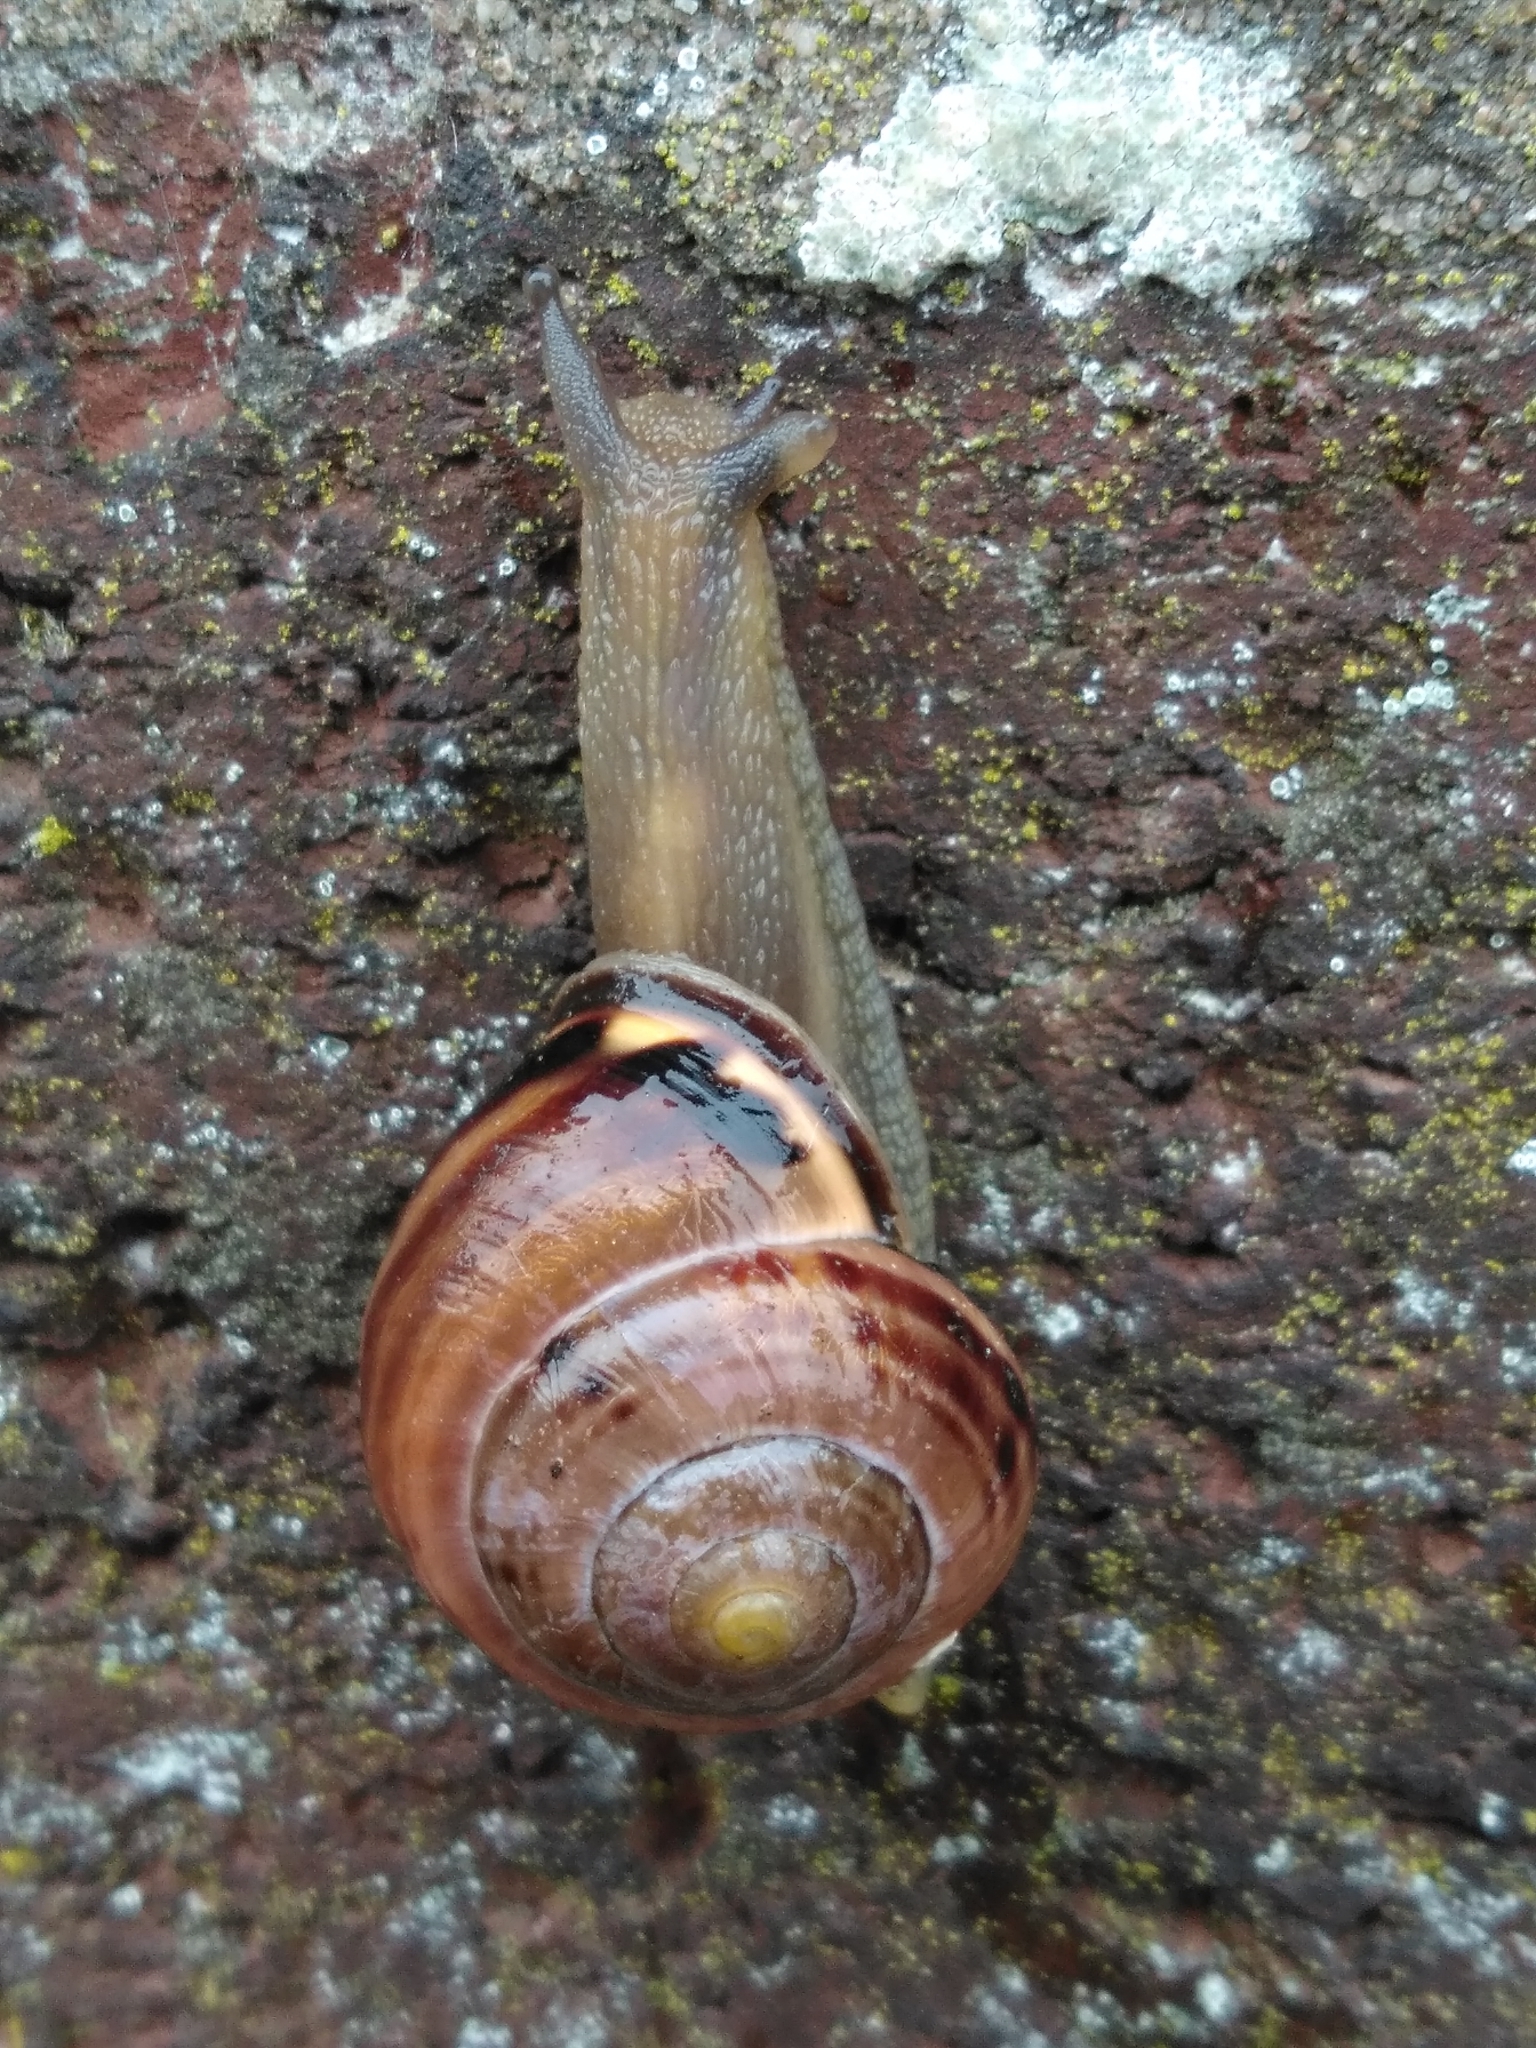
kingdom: Animalia
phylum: Mollusca
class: Gastropoda
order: Stylommatophora
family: Helicidae
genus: Cepaea
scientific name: Cepaea nemoralis
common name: Grovesnail
